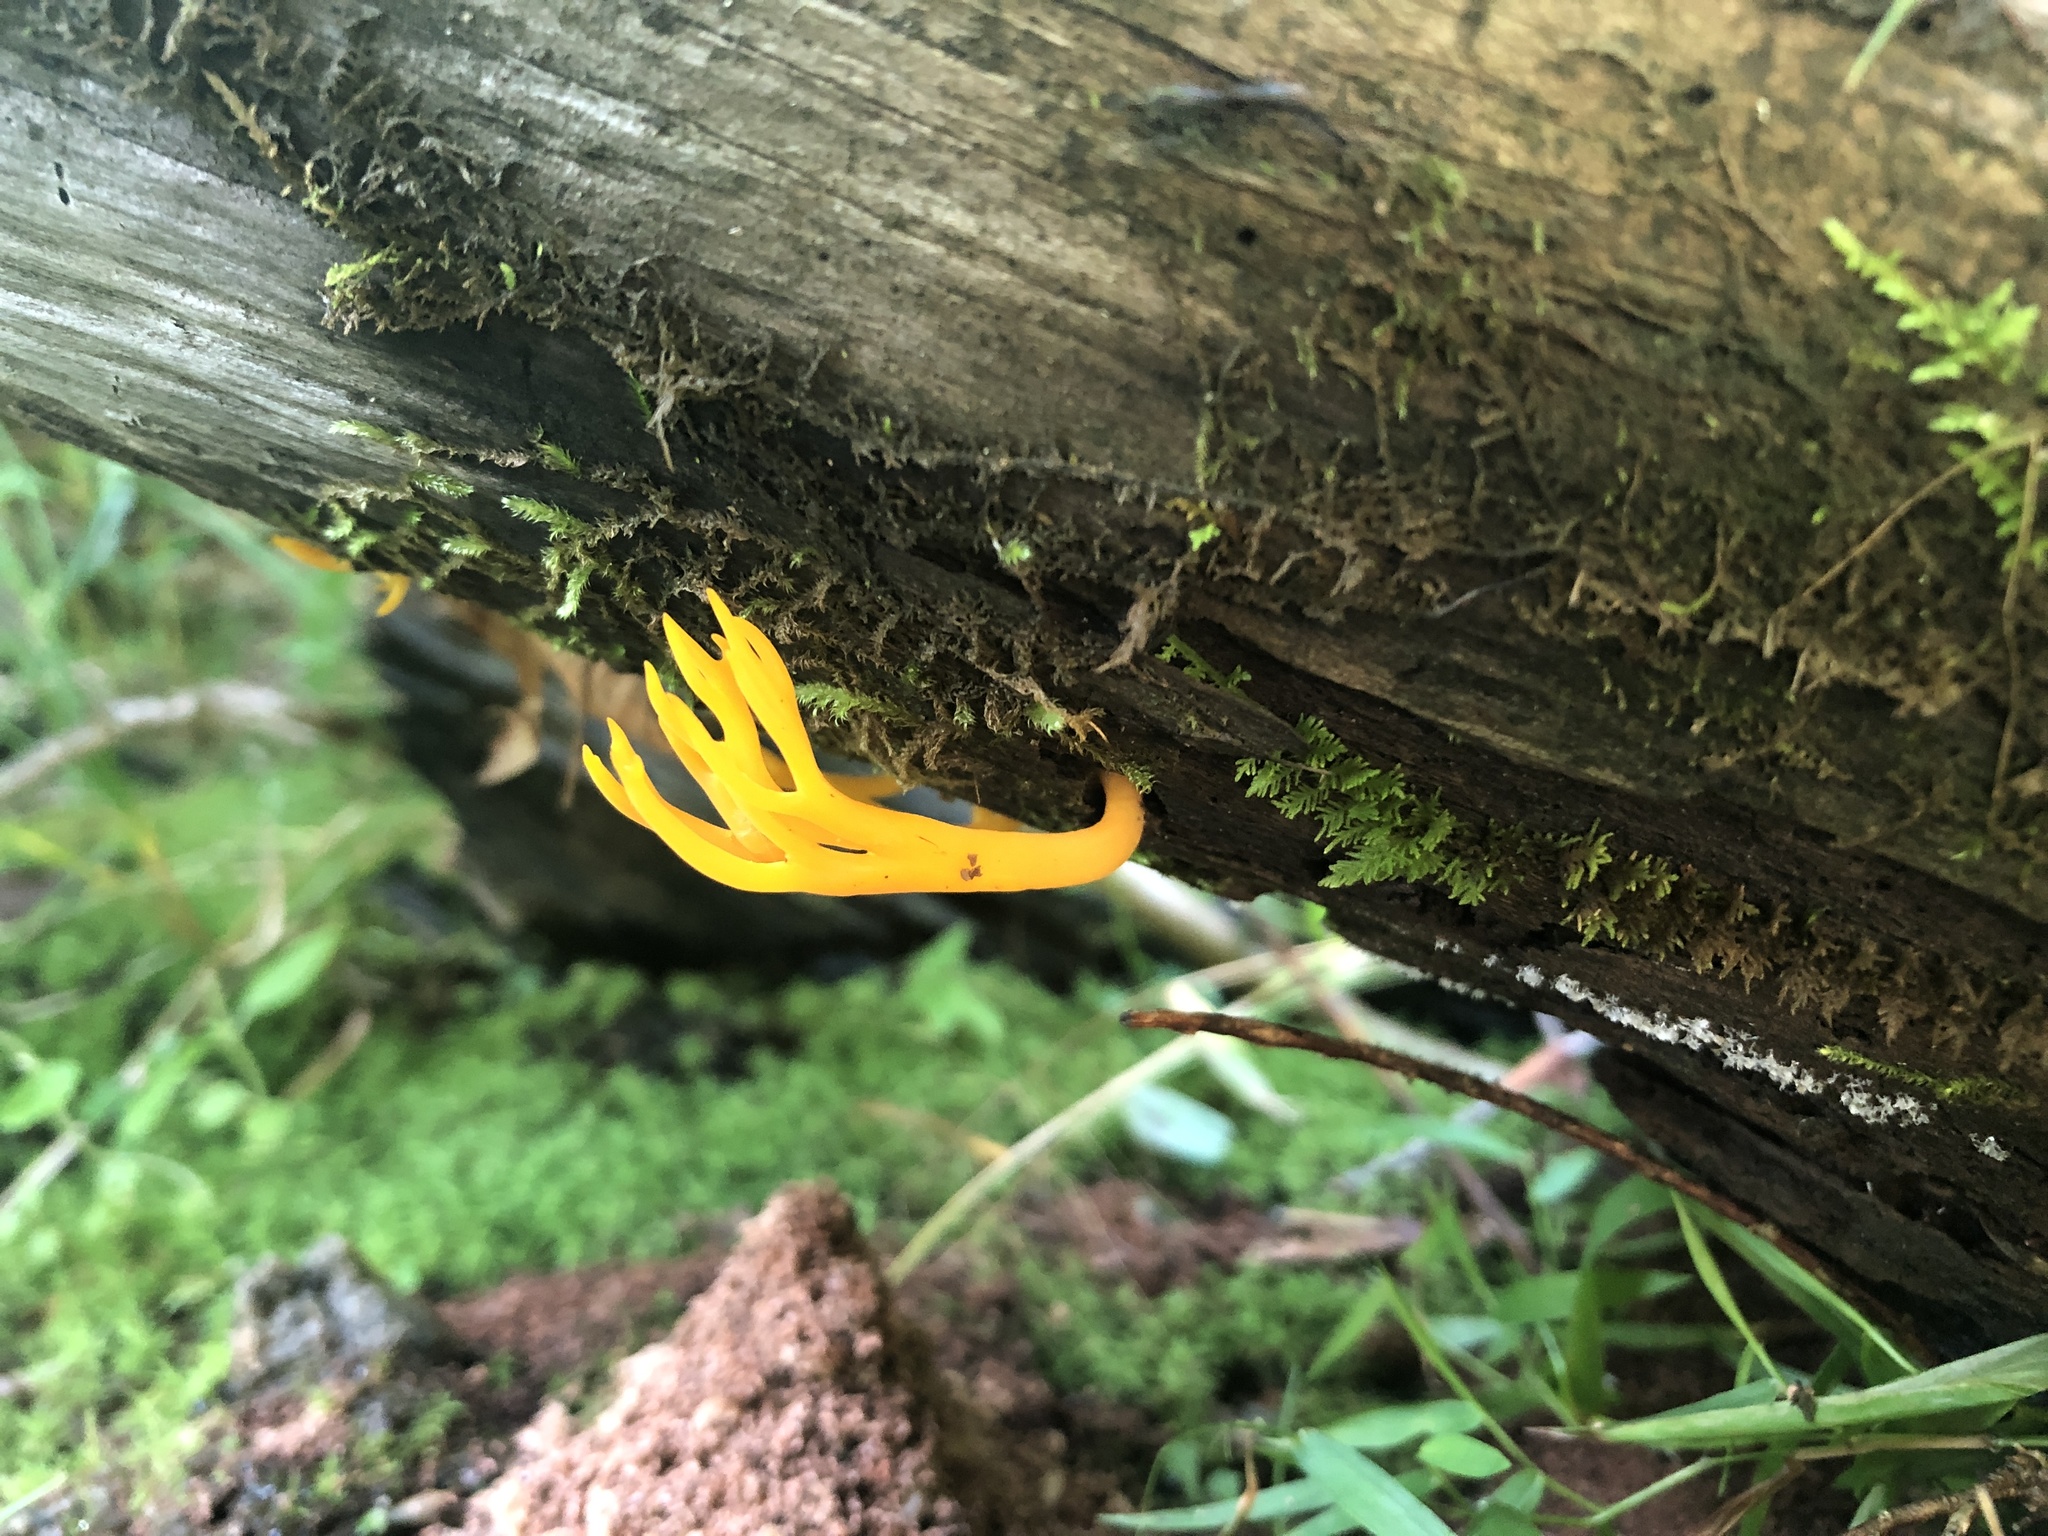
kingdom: Fungi
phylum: Basidiomycota
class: Dacrymycetes
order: Dacrymycetales
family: Dacrymycetaceae
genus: Calocera
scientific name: Calocera viscosa
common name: Yellow stagshorn
